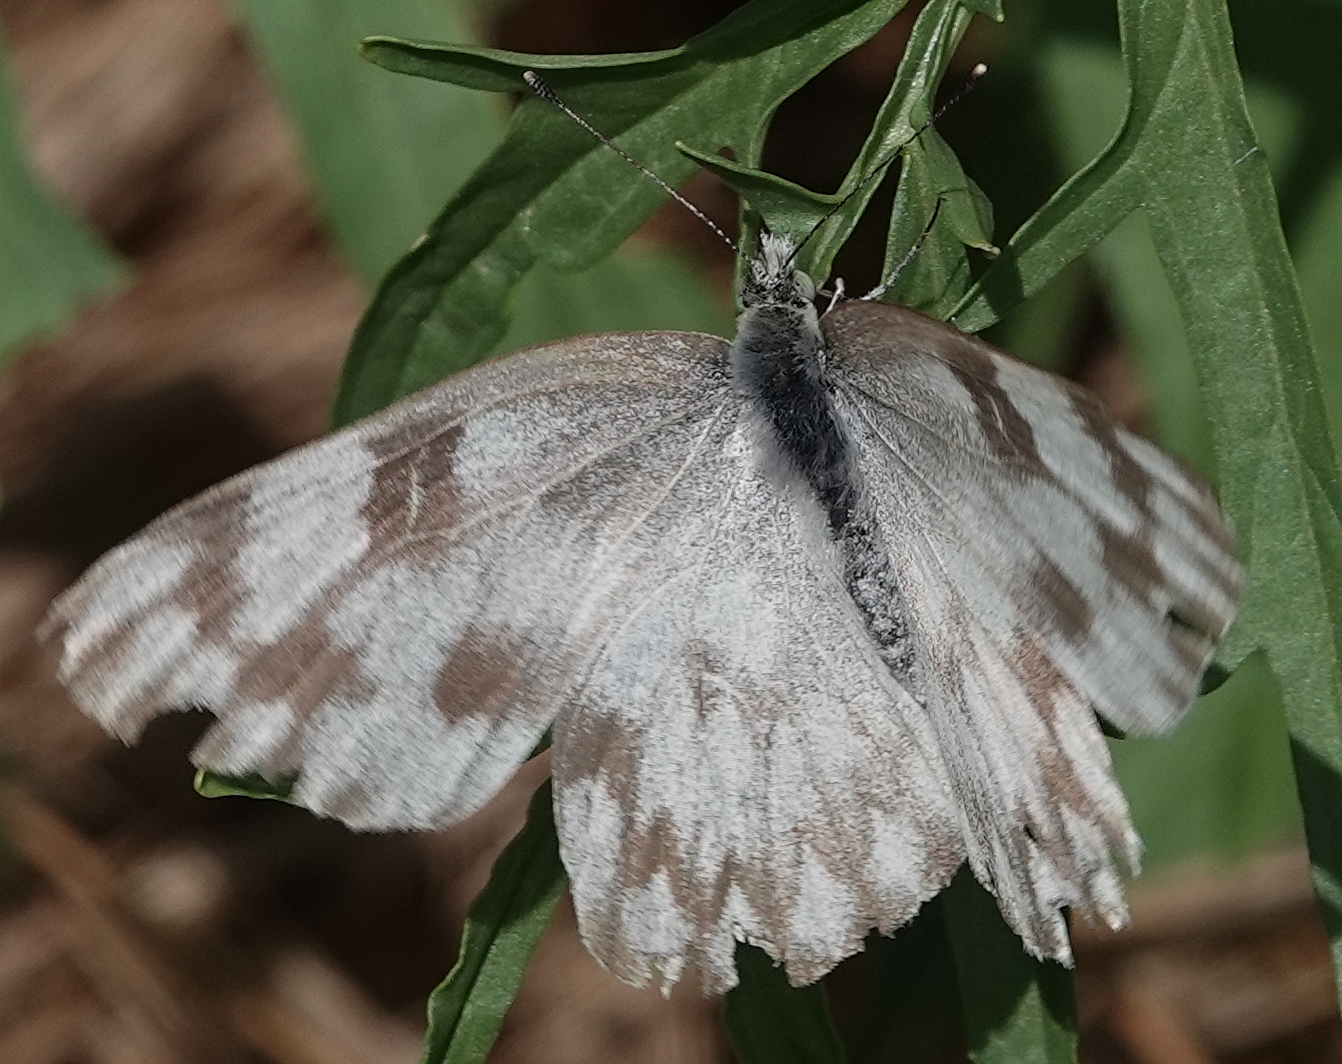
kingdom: Animalia
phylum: Arthropoda
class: Insecta
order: Lepidoptera
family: Pieridae
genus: Pontia
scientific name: Pontia protodice
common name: Checkered white
